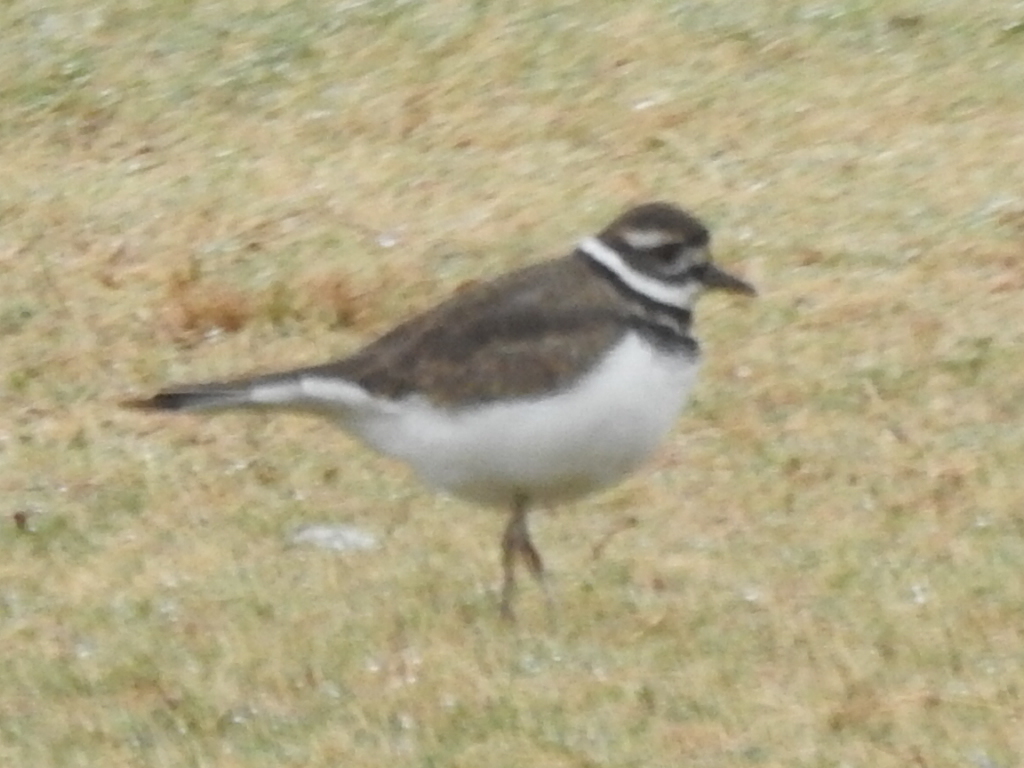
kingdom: Animalia
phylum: Chordata
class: Aves
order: Charadriiformes
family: Charadriidae
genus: Charadrius
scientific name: Charadrius vociferus
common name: Killdeer
